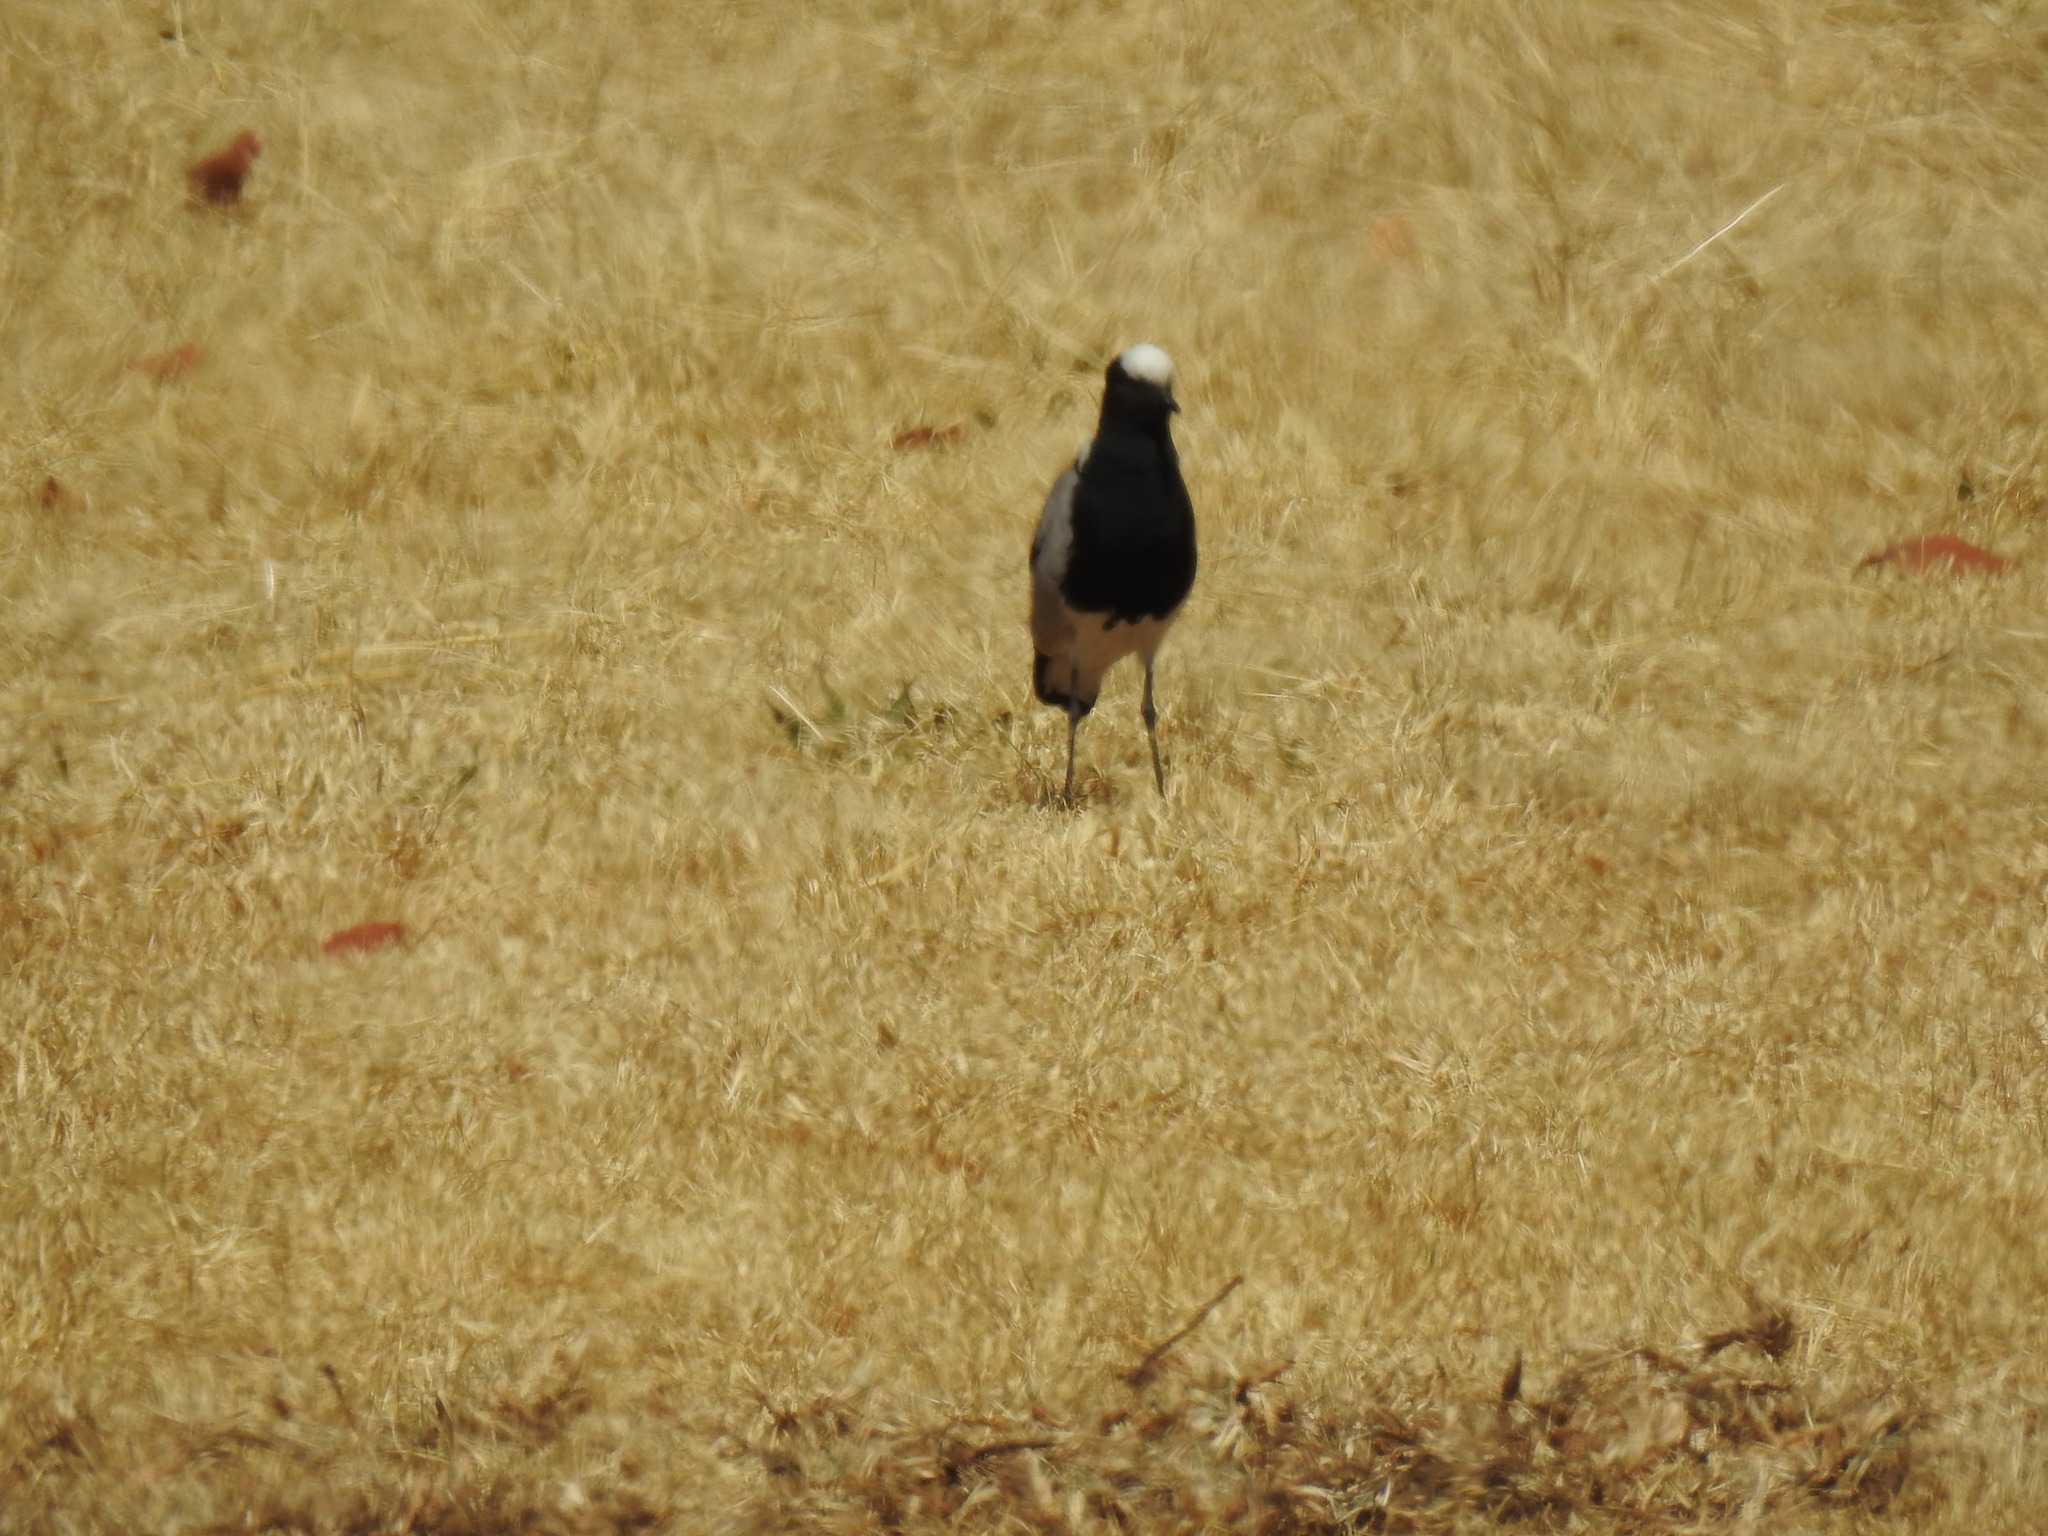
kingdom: Animalia
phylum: Chordata
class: Aves
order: Charadriiformes
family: Charadriidae
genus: Vanellus
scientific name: Vanellus armatus
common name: Blacksmith lapwing
